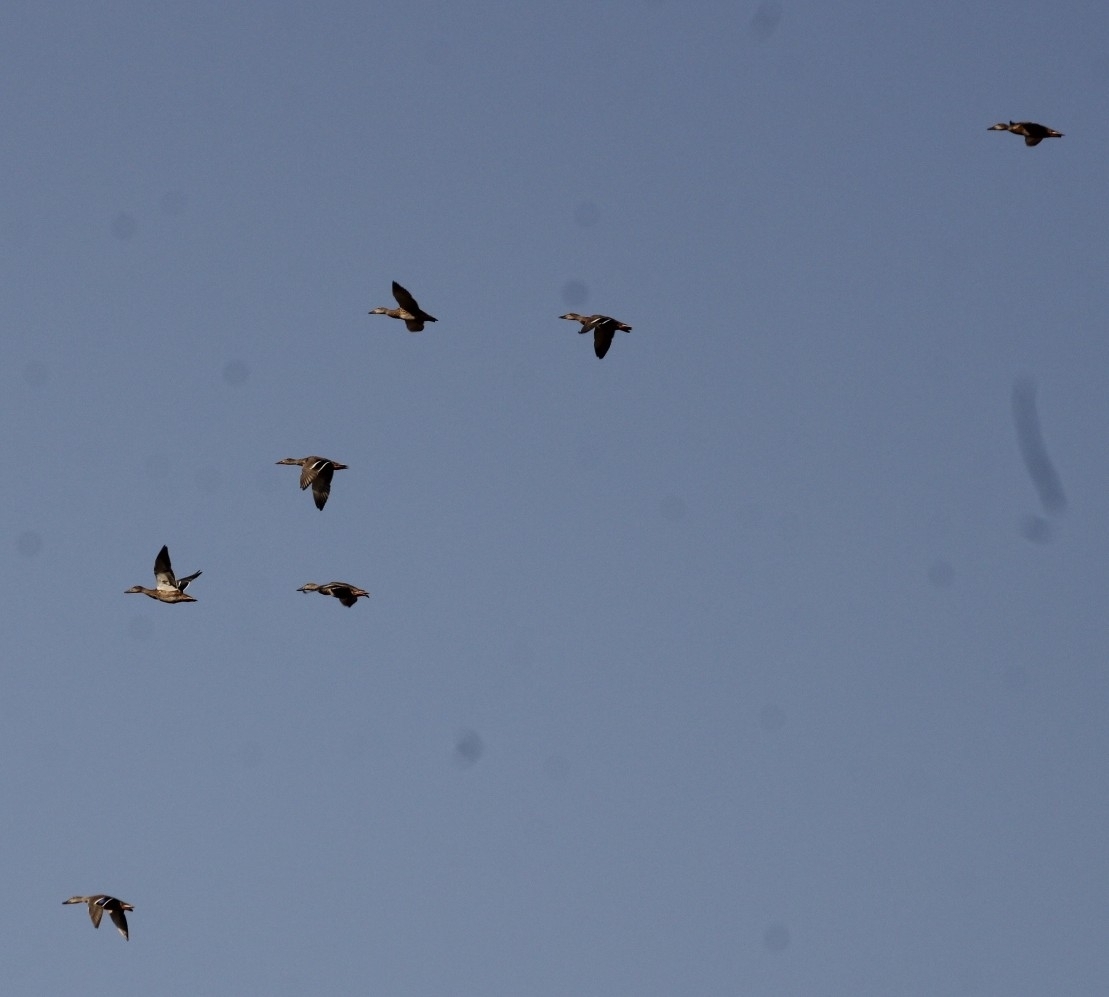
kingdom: Animalia
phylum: Chordata
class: Aves
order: Anseriformes
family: Anatidae
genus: Anas
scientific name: Anas platyrhynchos
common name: Mallard
